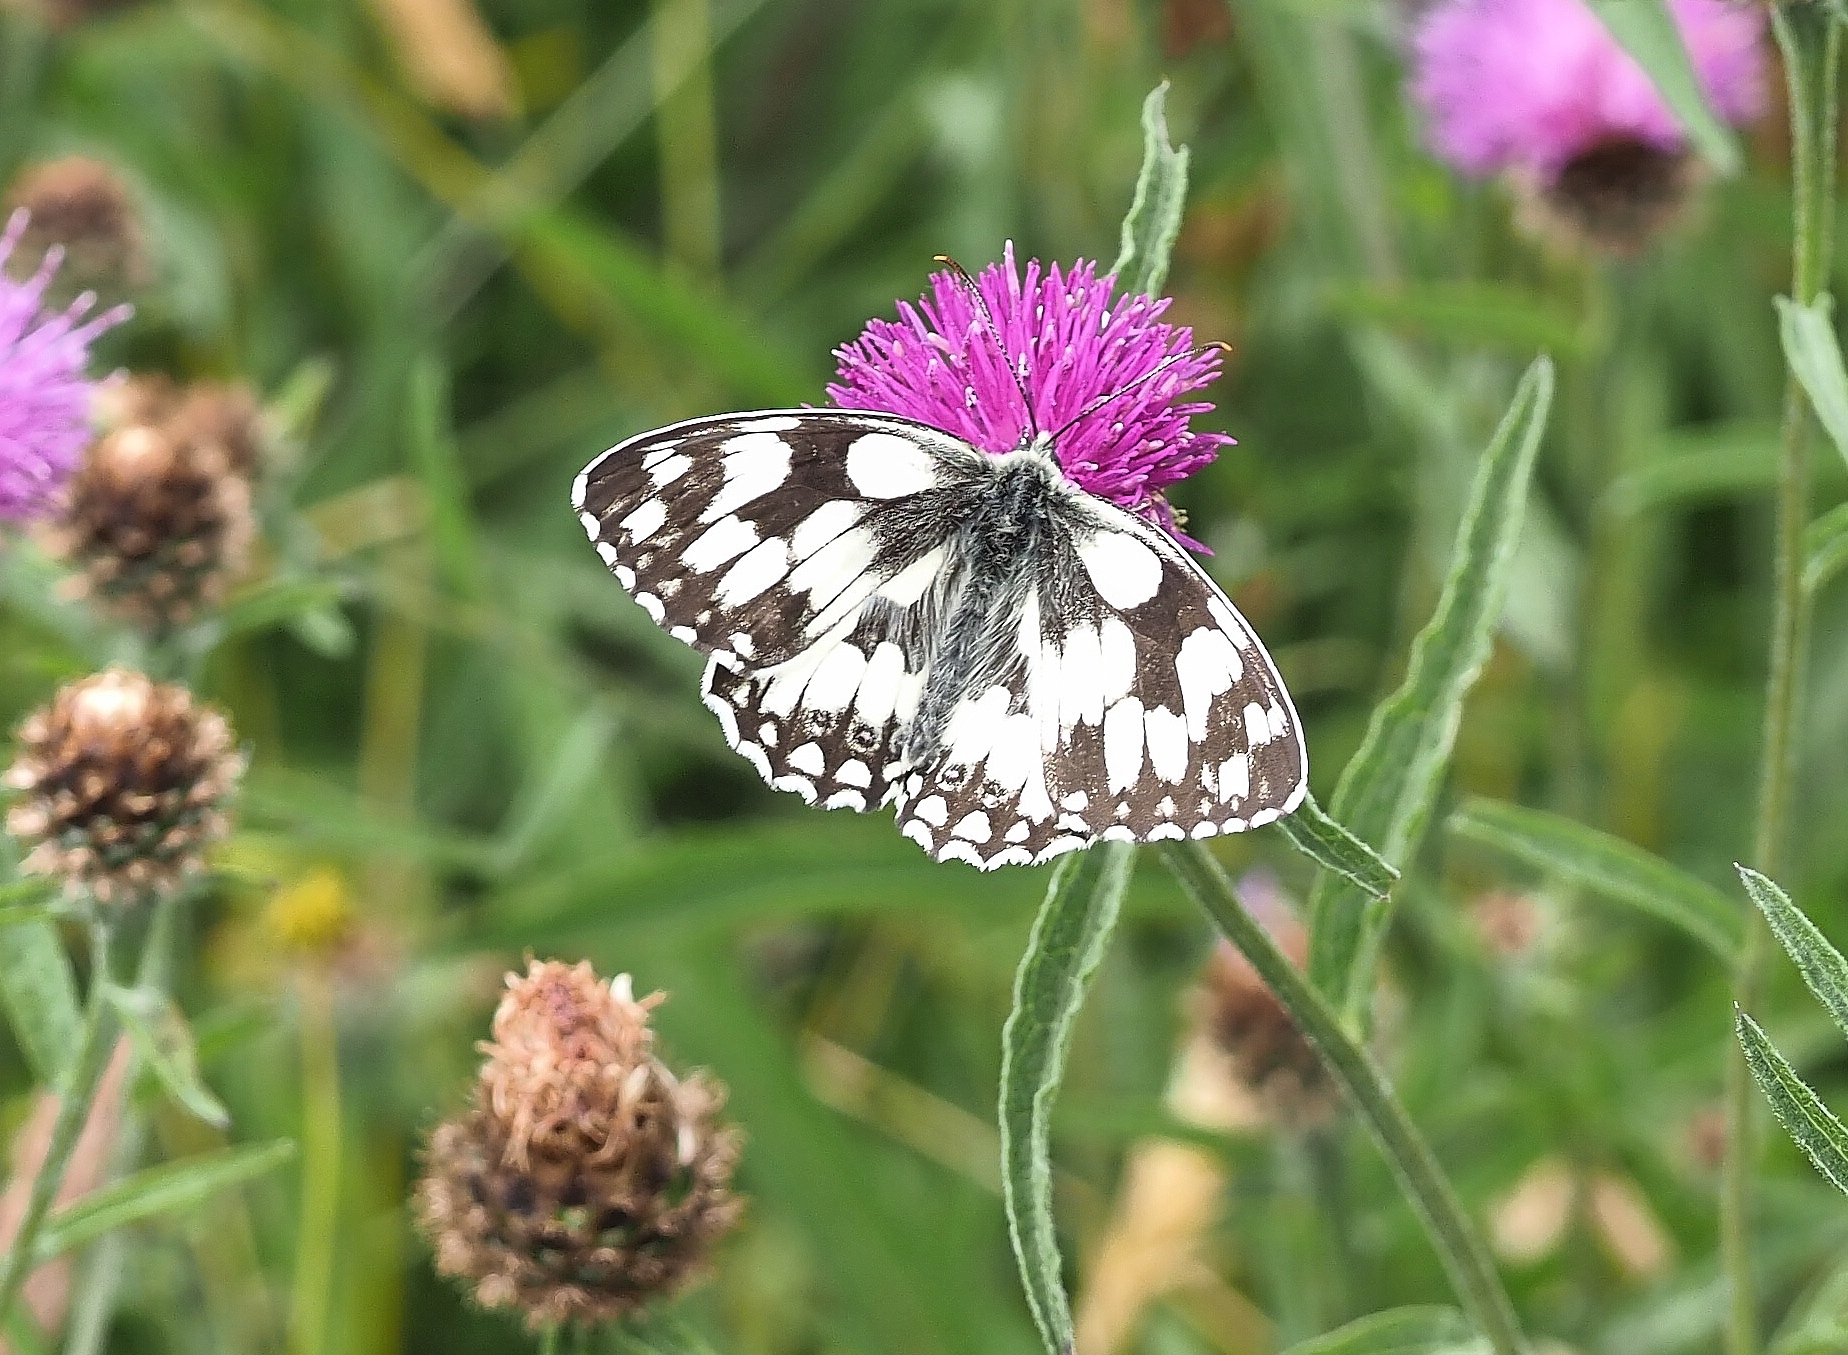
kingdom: Animalia
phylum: Arthropoda
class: Insecta
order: Lepidoptera
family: Nymphalidae
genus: Melanargia
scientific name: Melanargia galathea
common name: Marbled white
